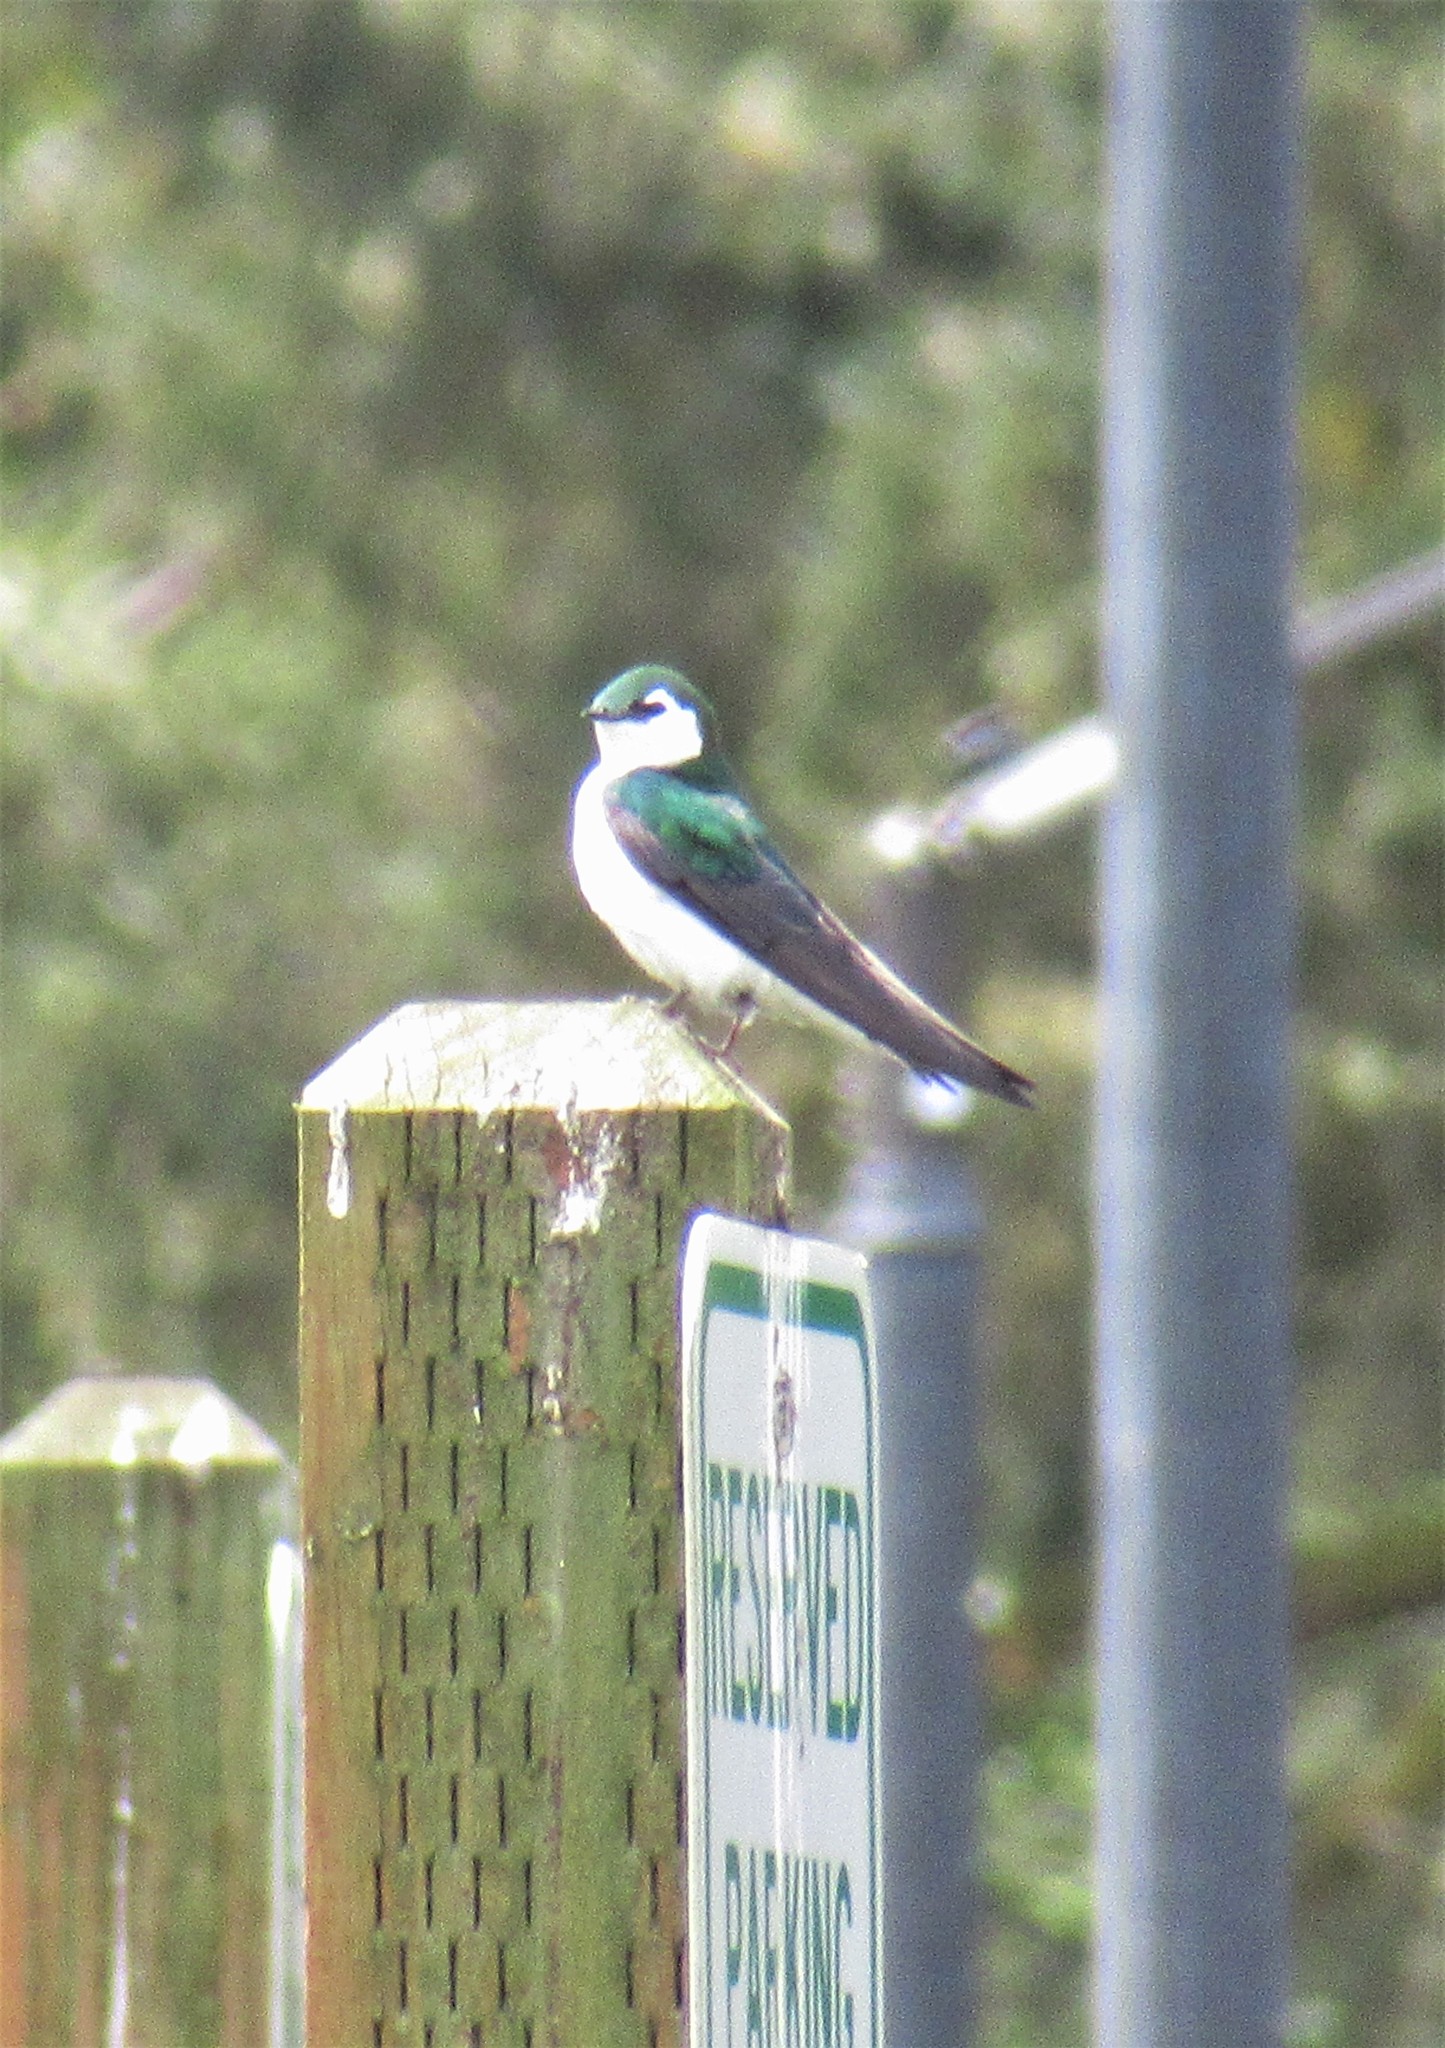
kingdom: Animalia
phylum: Chordata
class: Aves
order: Passeriformes
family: Hirundinidae
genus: Tachycineta
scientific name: Tachycineta thalassina
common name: Violet-green swallow
